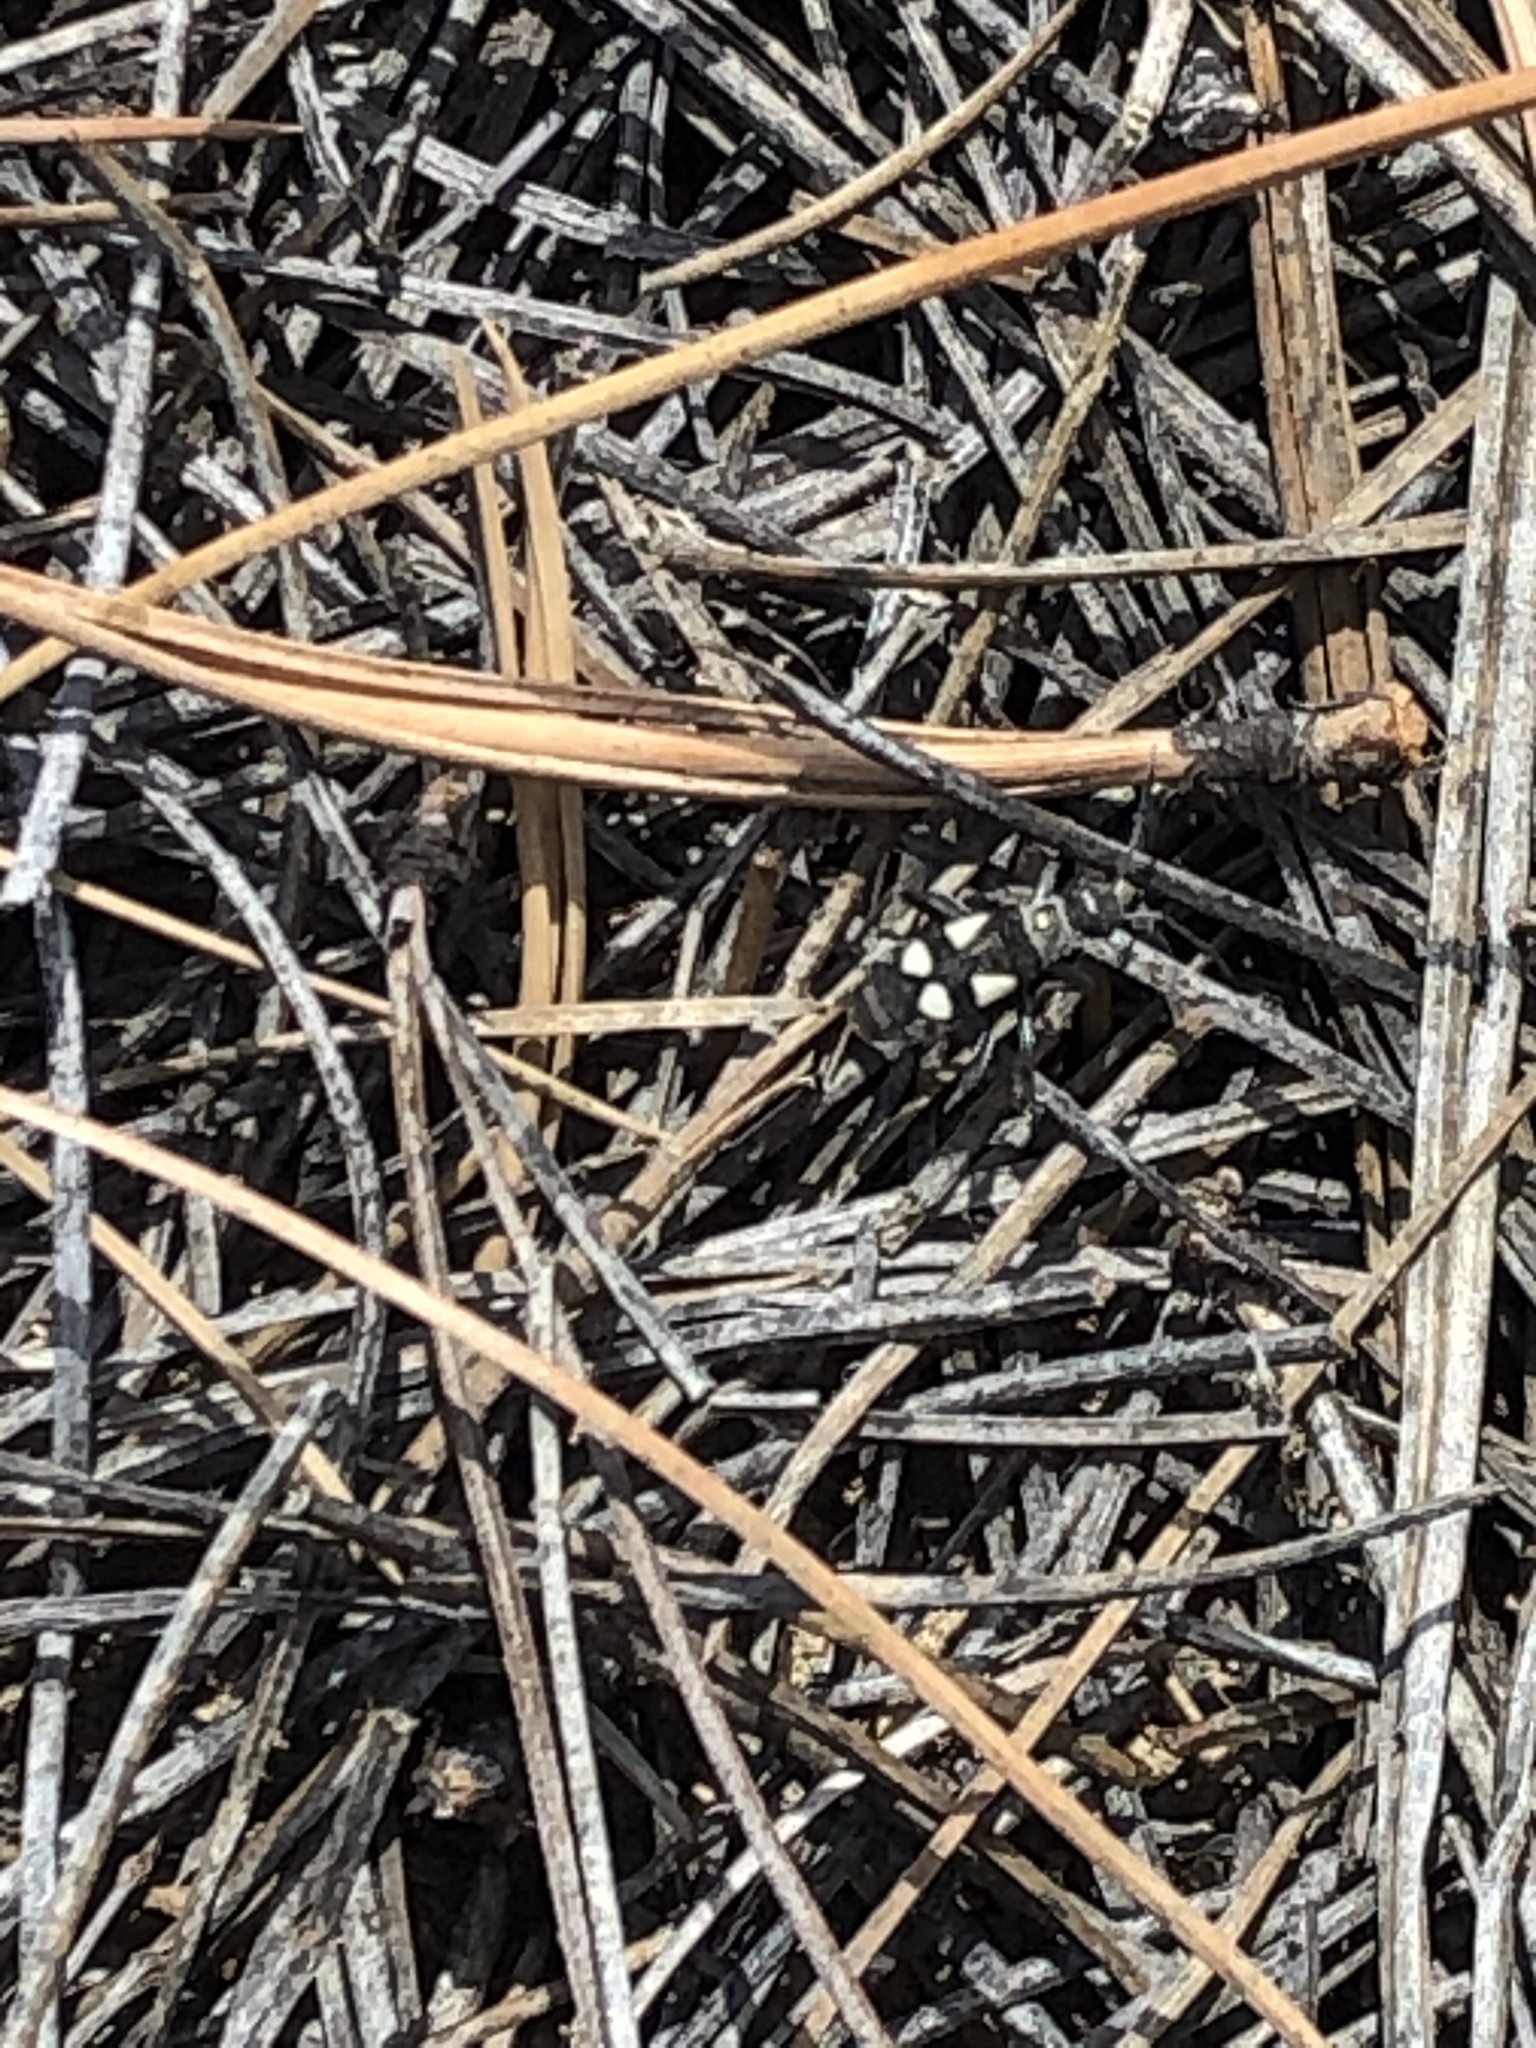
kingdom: Animalia
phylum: Arthropoda
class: Insecta
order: Hemiptera
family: Largidae
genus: Arhaphe
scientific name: Arhaphe arguta
